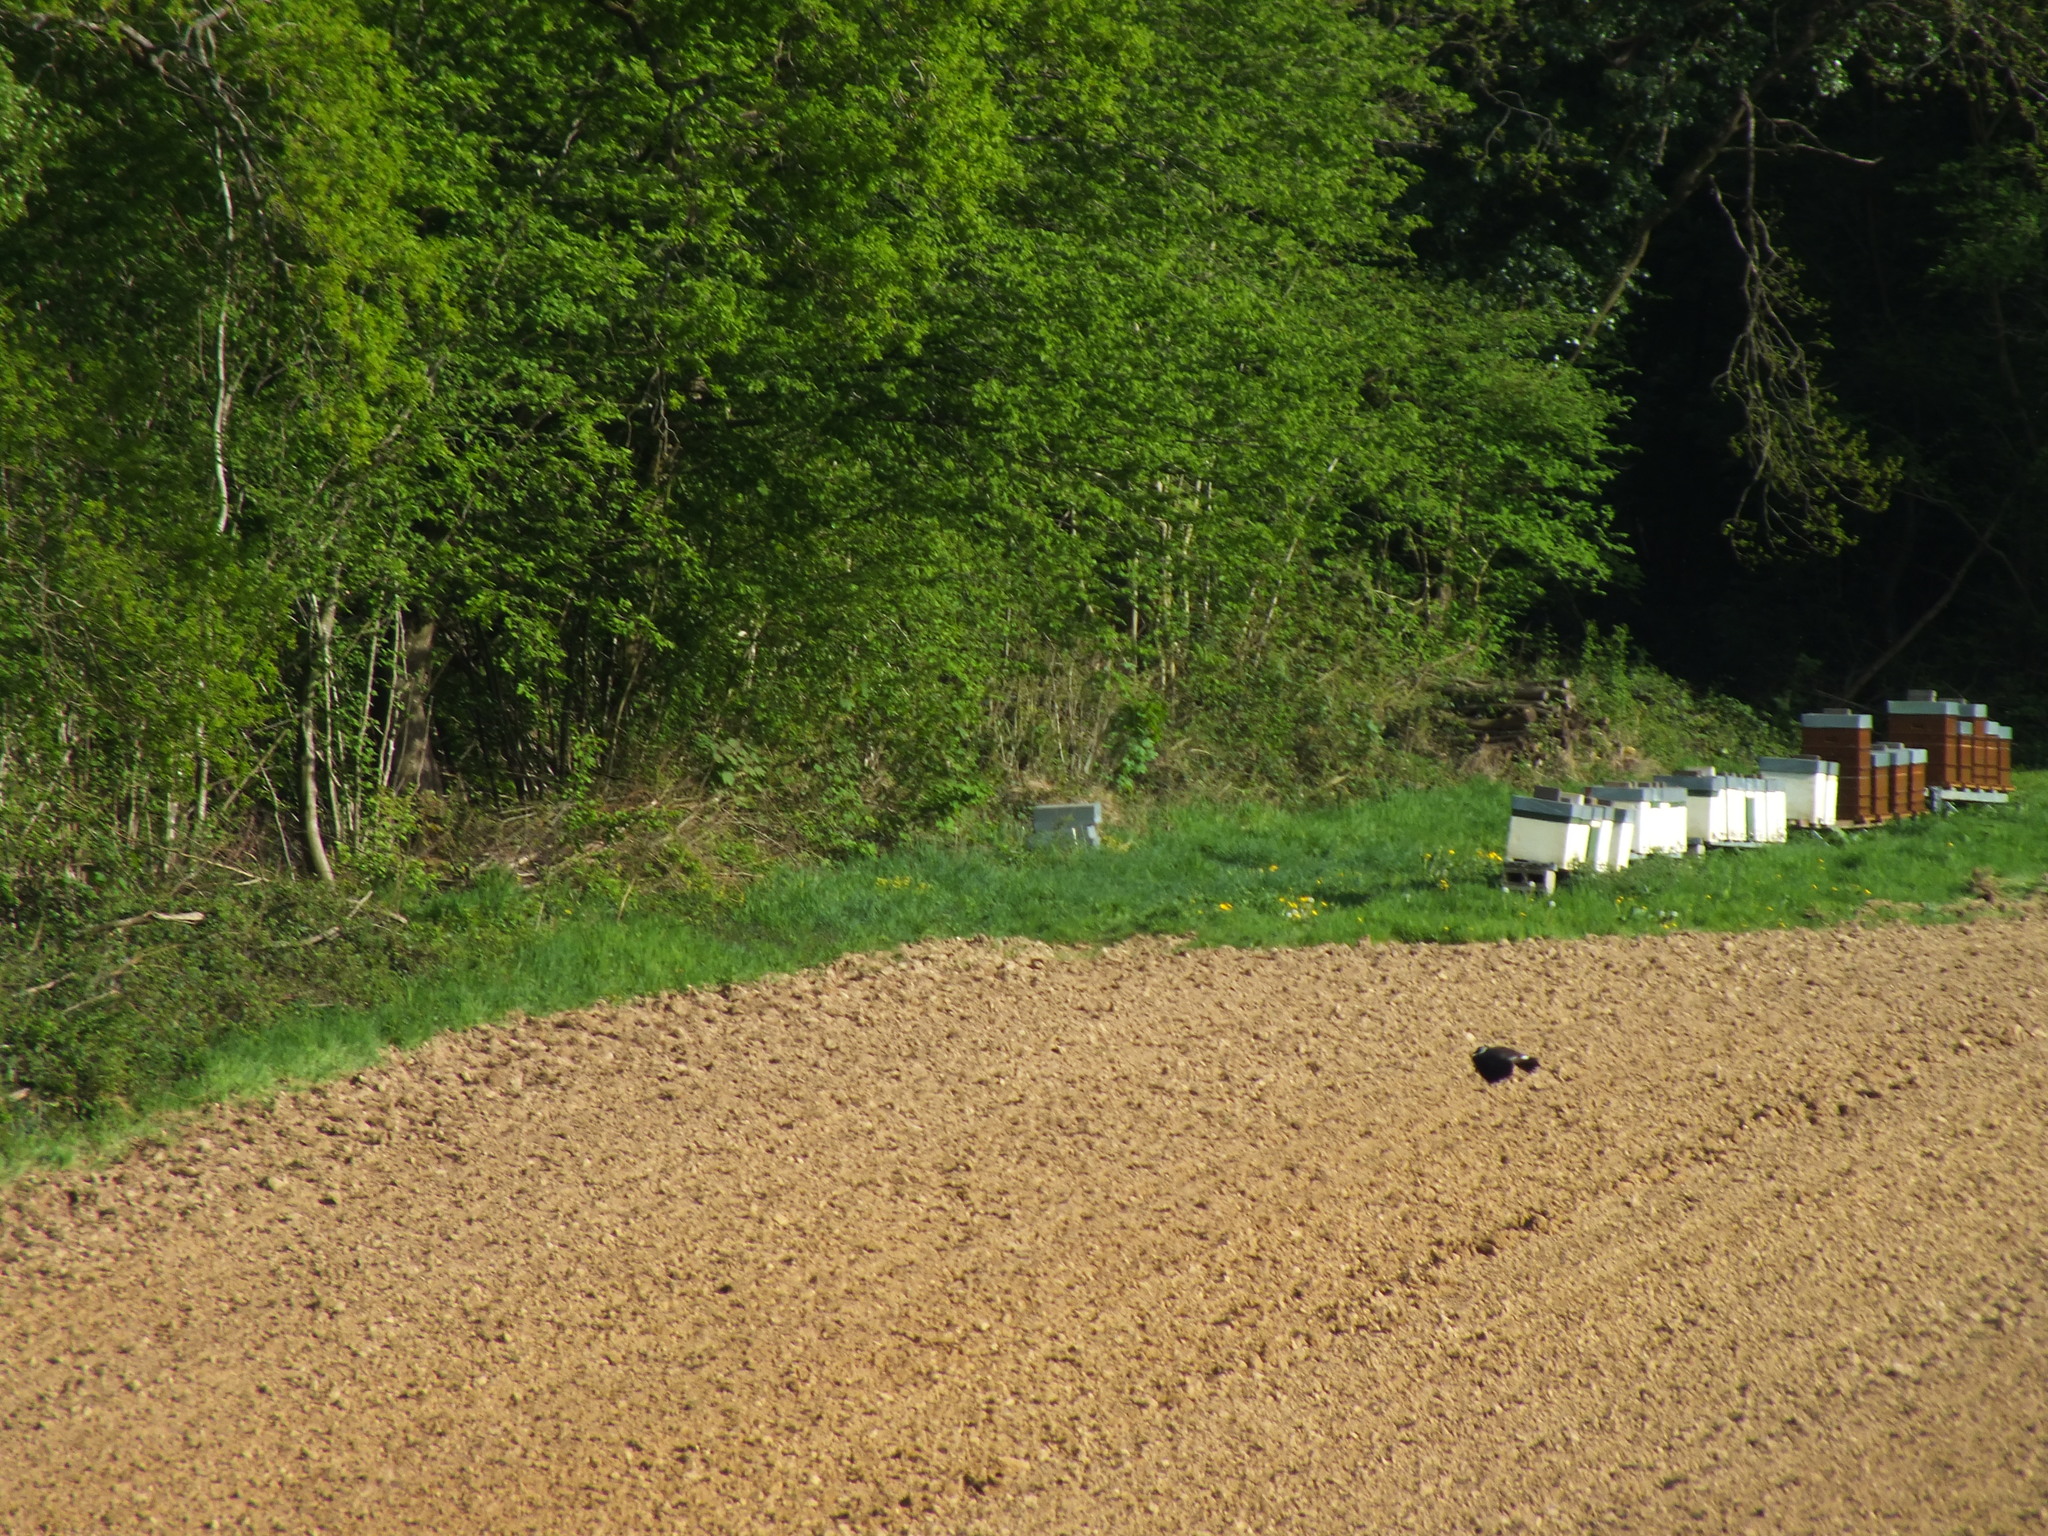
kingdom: Animalia
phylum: Chordata
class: Aves
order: Charadriiformes
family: Charadriidae
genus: Vanellus
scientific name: Vanellus vanellus
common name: Northern lapwing
